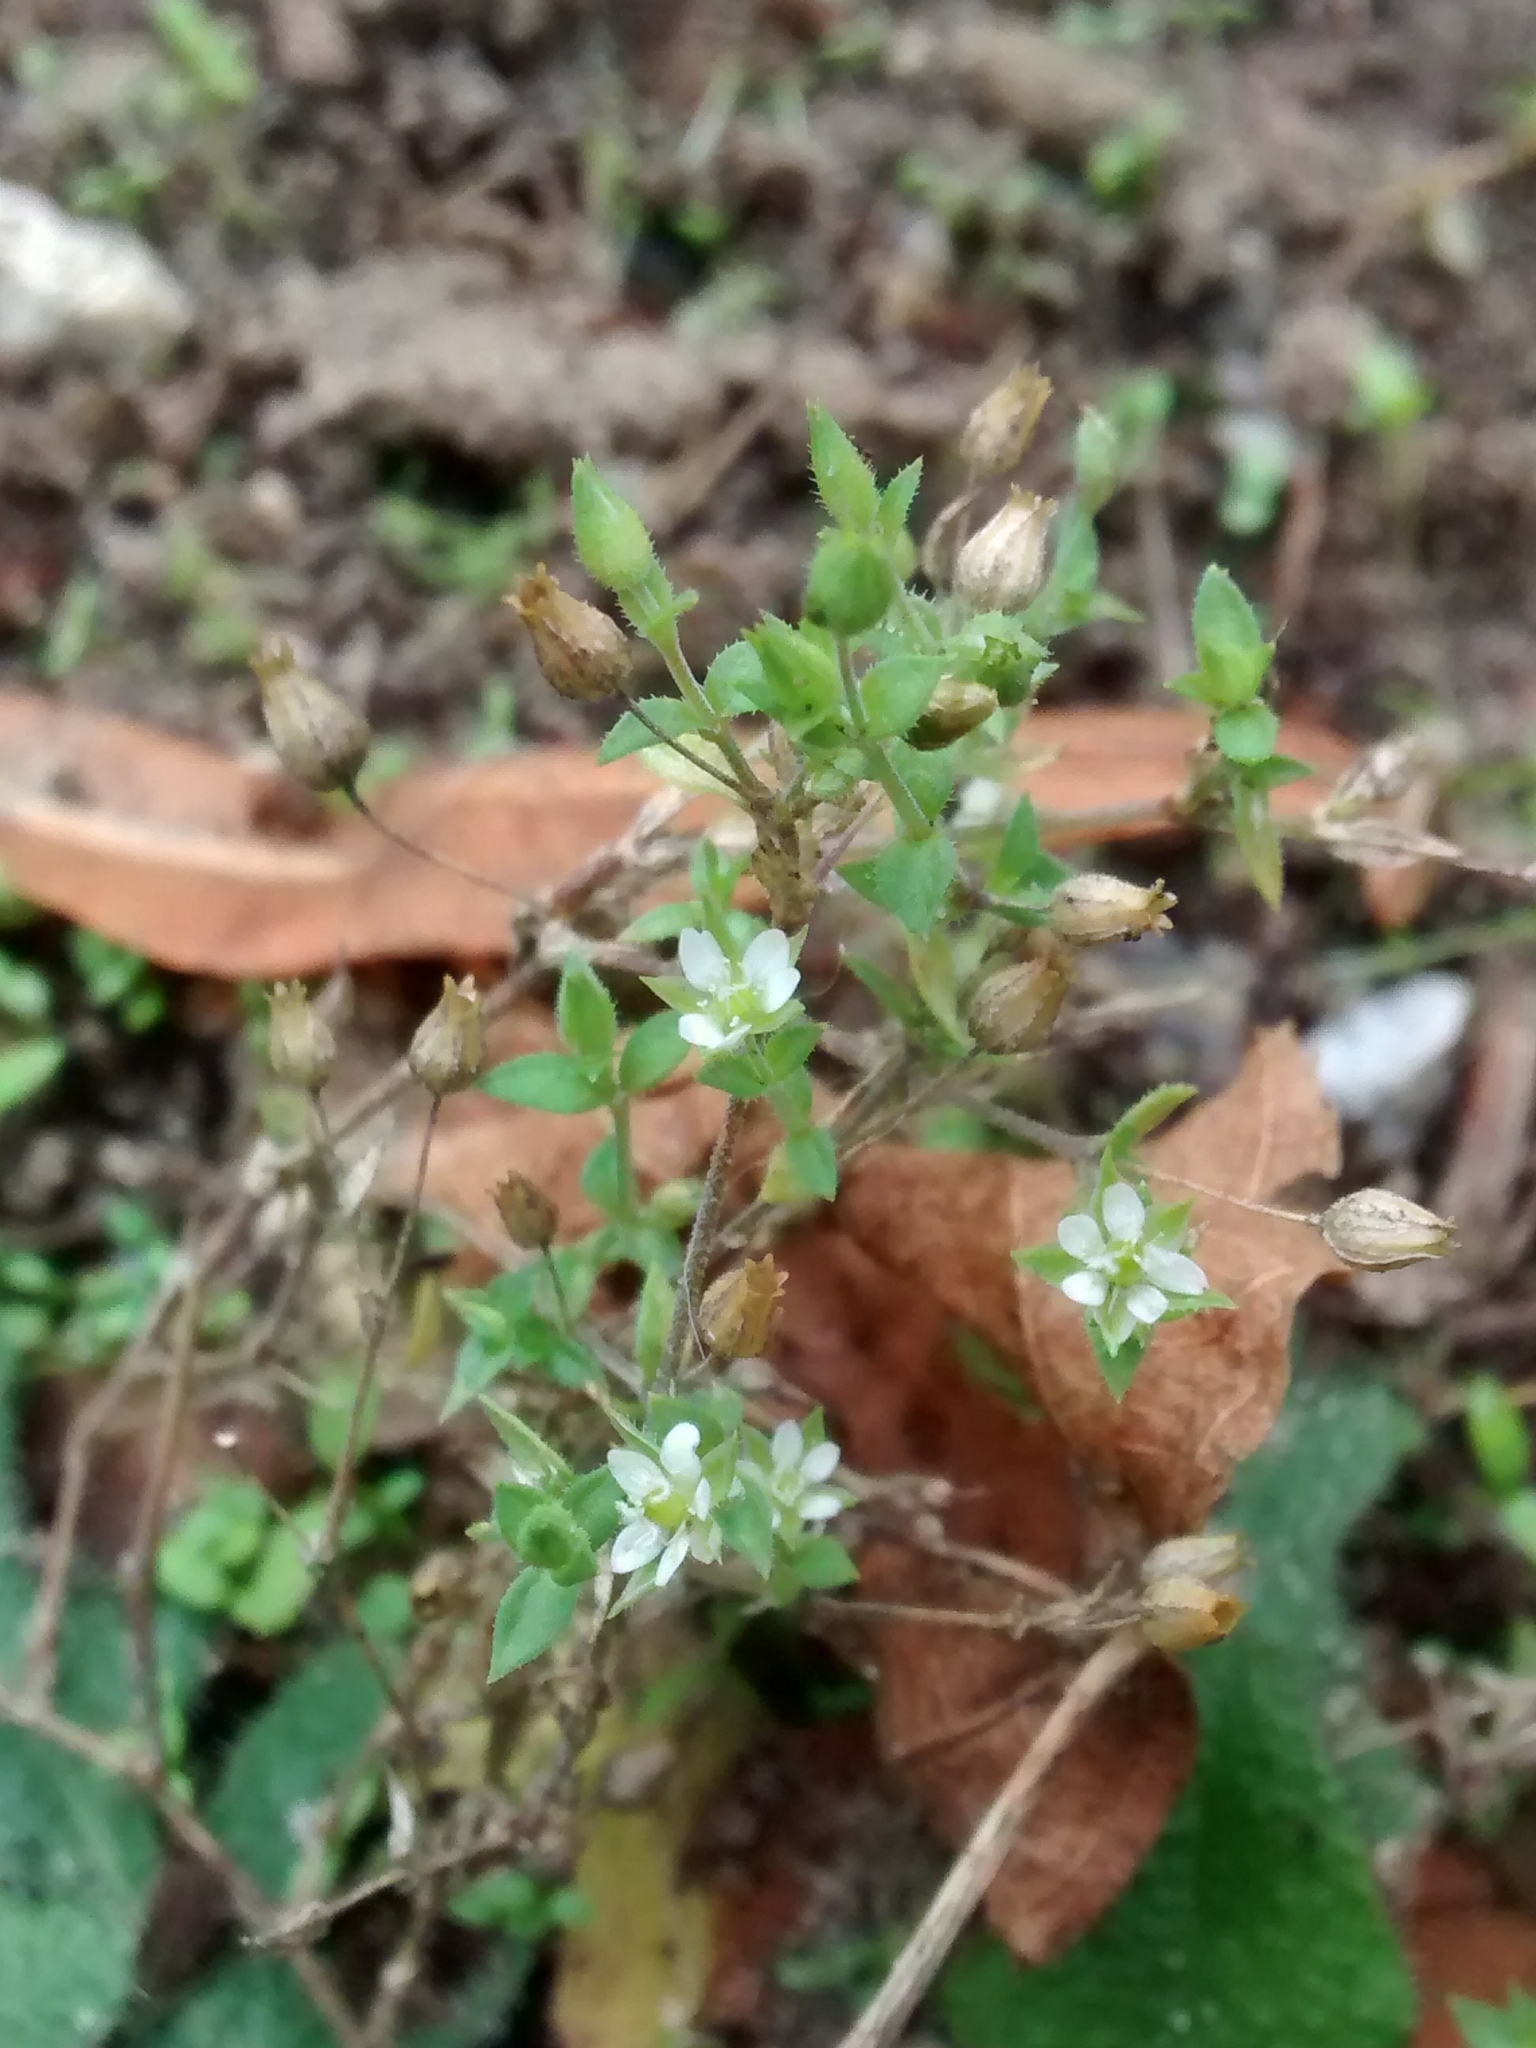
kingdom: Plantae
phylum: Tracheophyta
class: Magnoliopsida
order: Caryophyllales
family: Caryophyllaceae
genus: Arenaria
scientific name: Arenaria serpyllifolia
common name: Thyme-leaved sandwort
